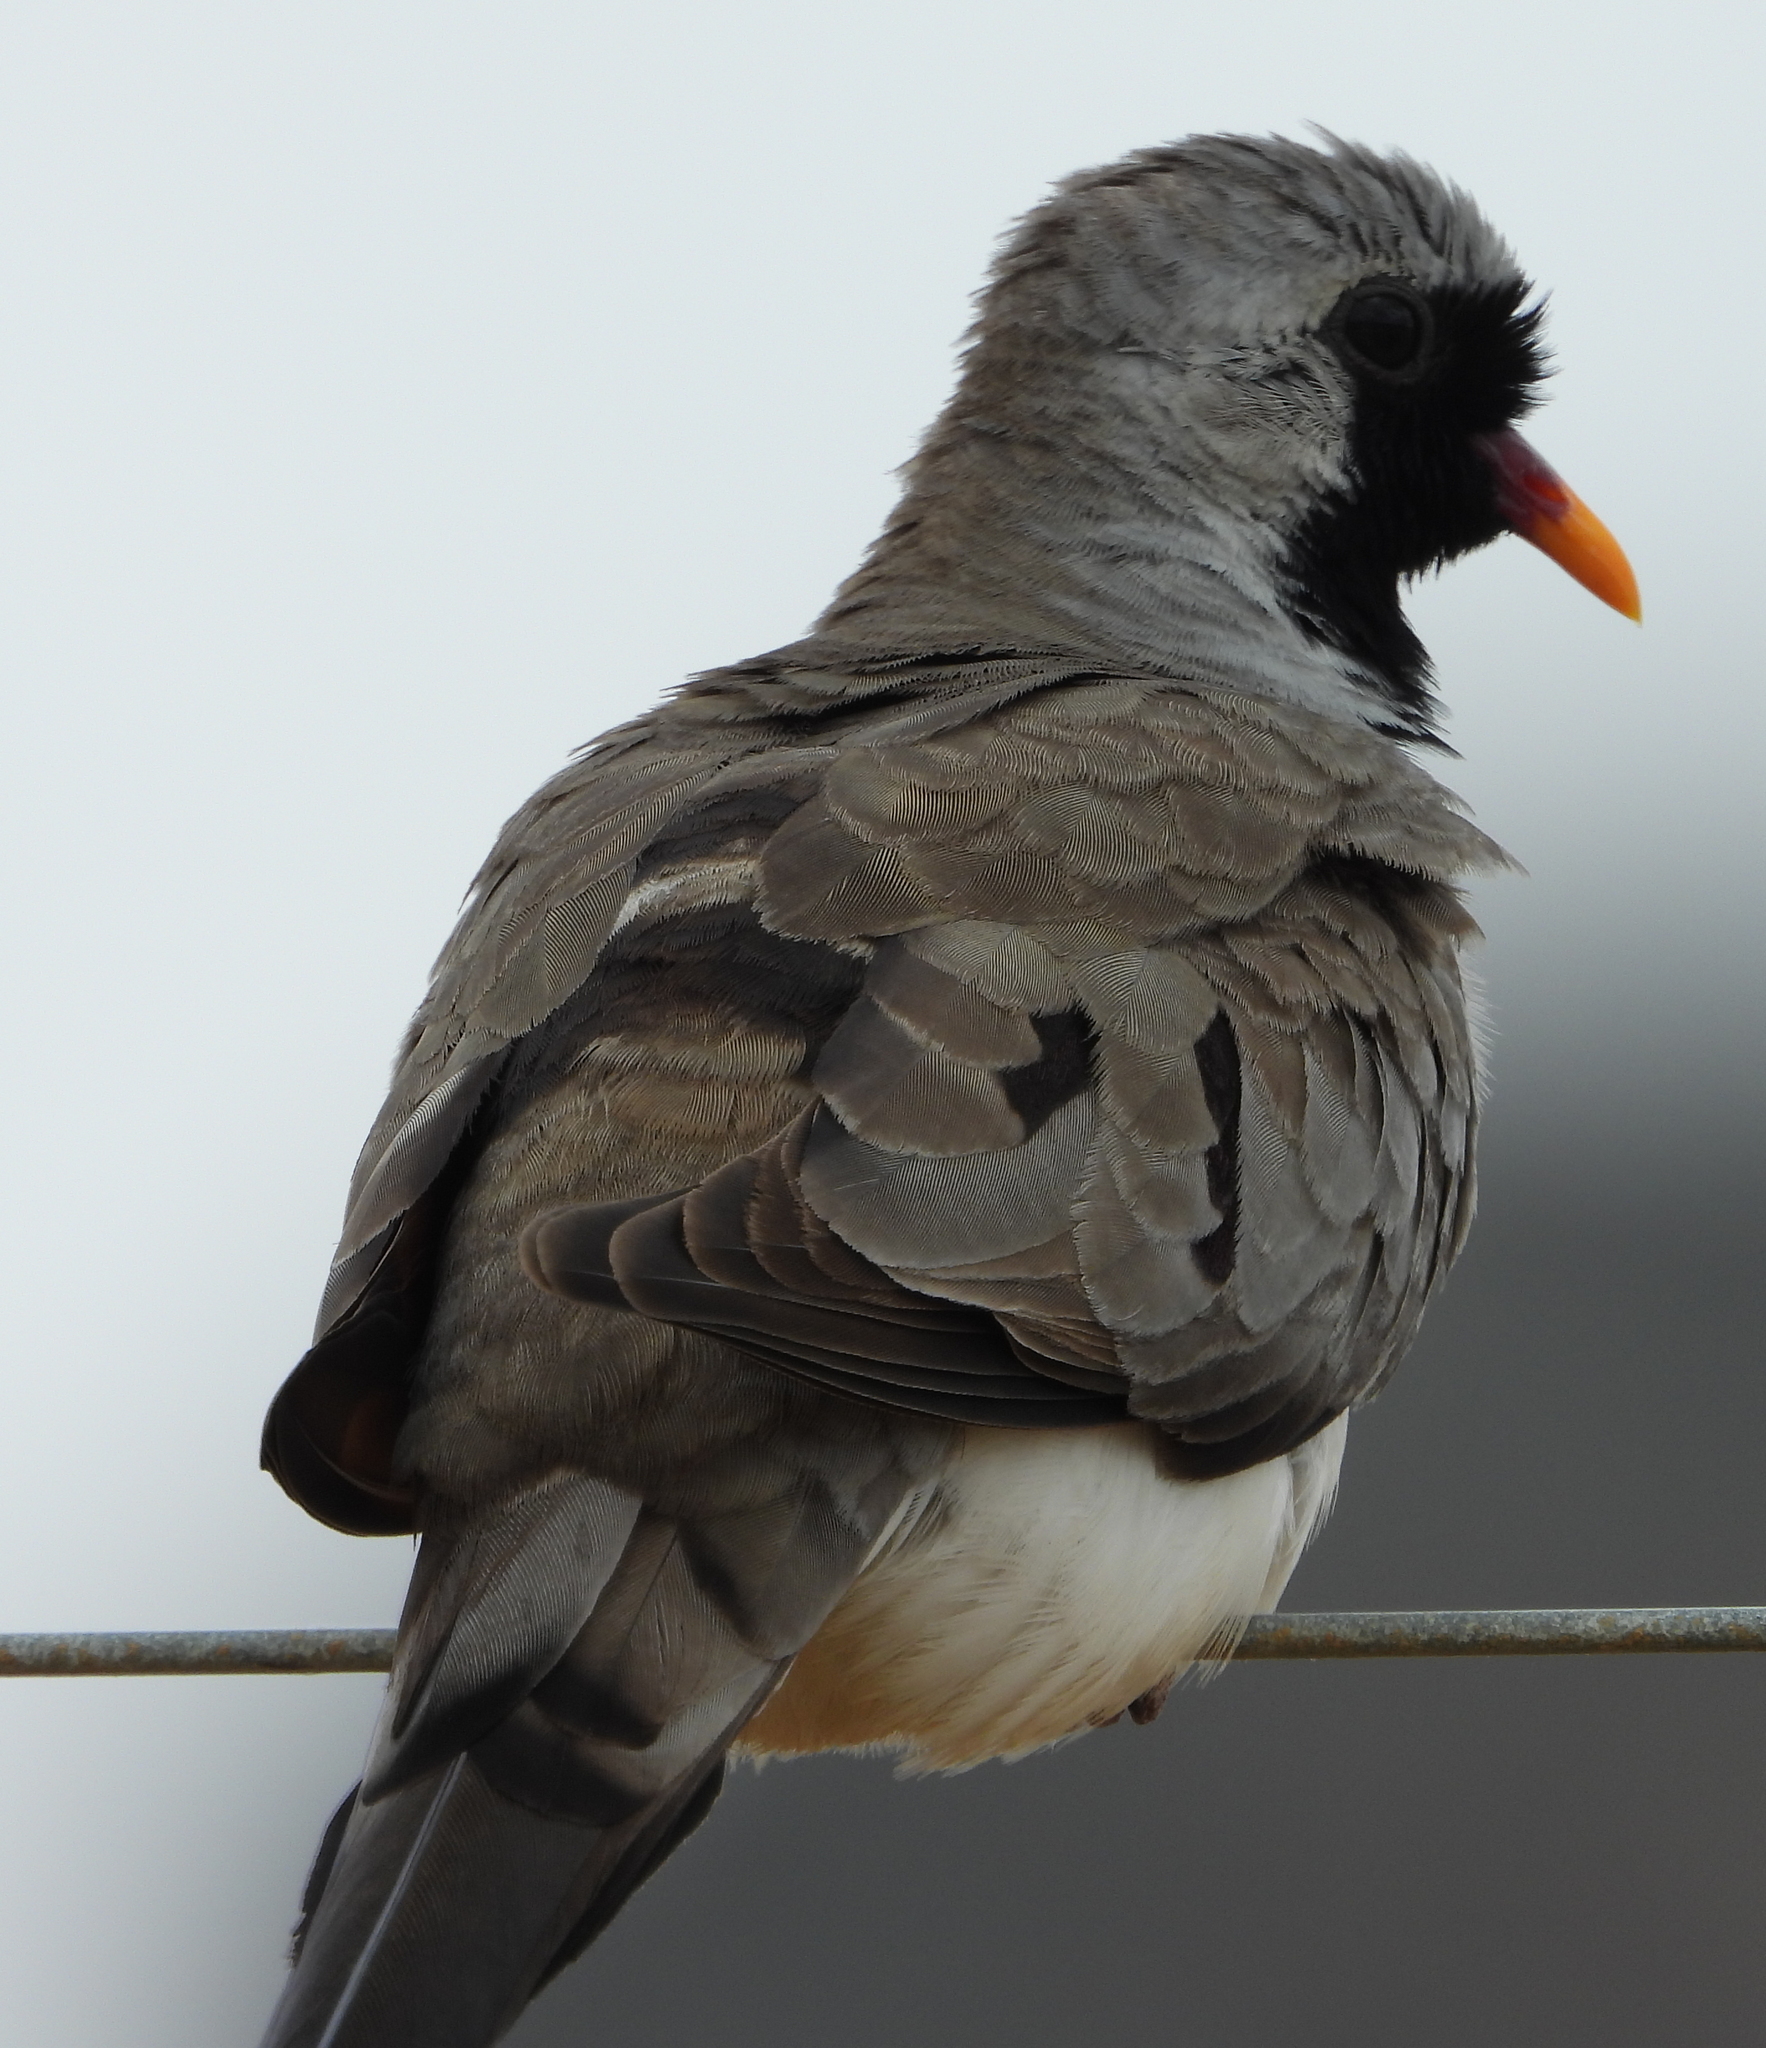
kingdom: Animalia
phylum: Chordata
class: Aves
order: Columbiformes
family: Columbidae
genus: Oena
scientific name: Oena capensis
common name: Namaqua dove
